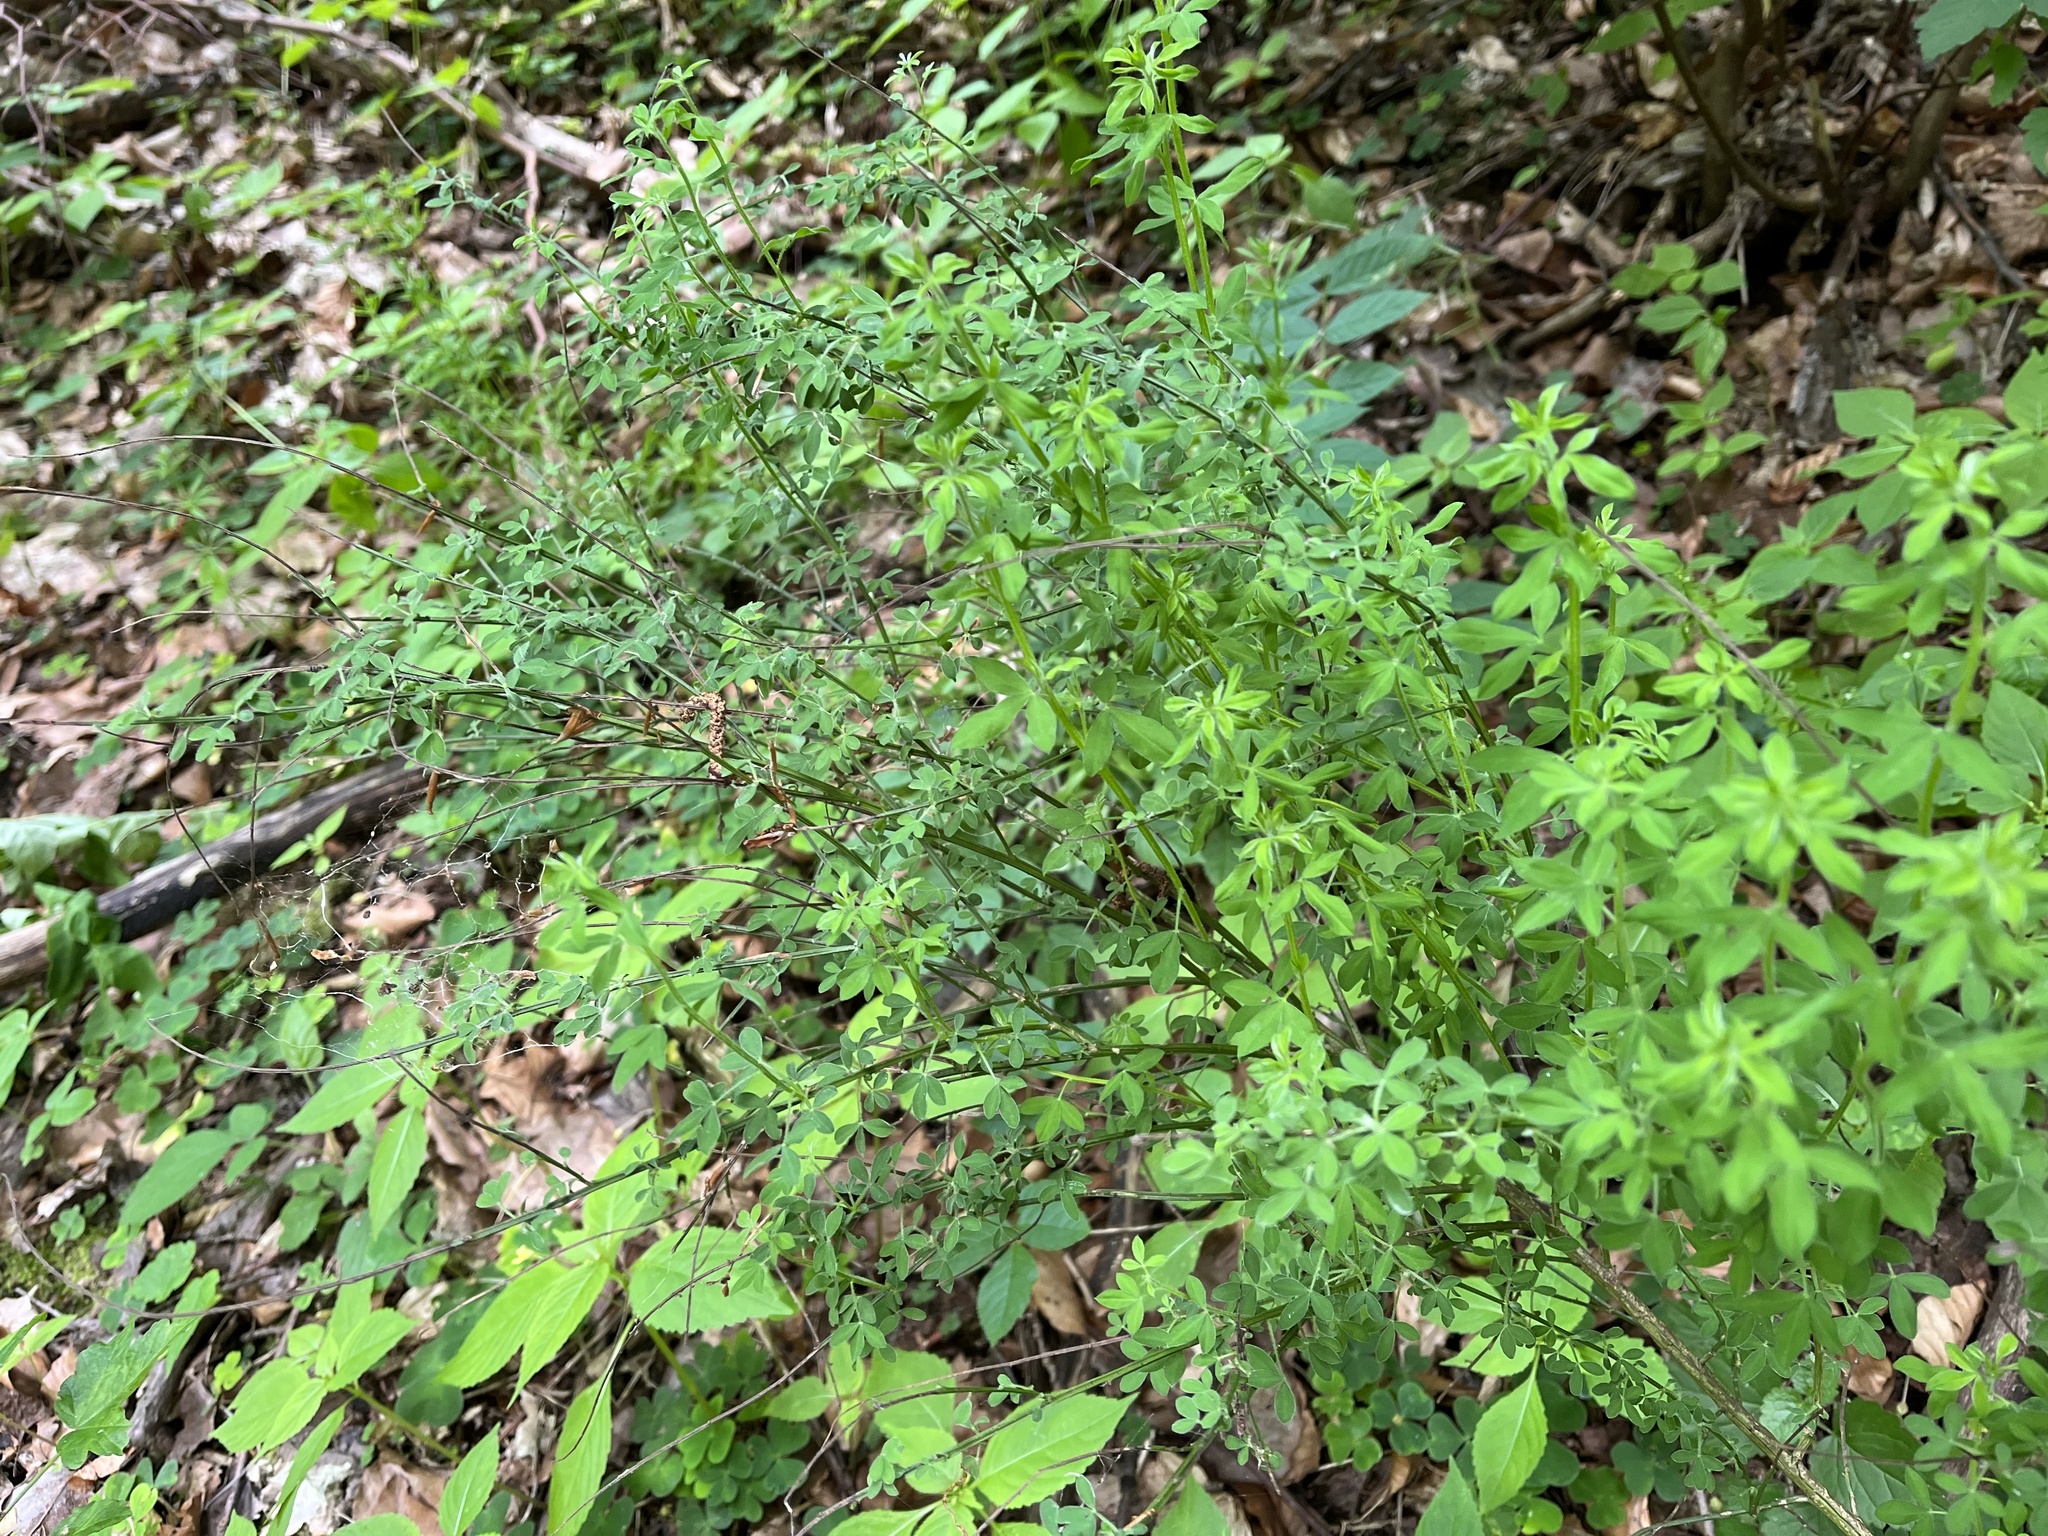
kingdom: Plantae
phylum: Tracheophyta
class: Magnoliopsida
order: Fabales
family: Fabaceae
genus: Cytisus
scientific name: Cytisus scoparius
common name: Scotch broom
